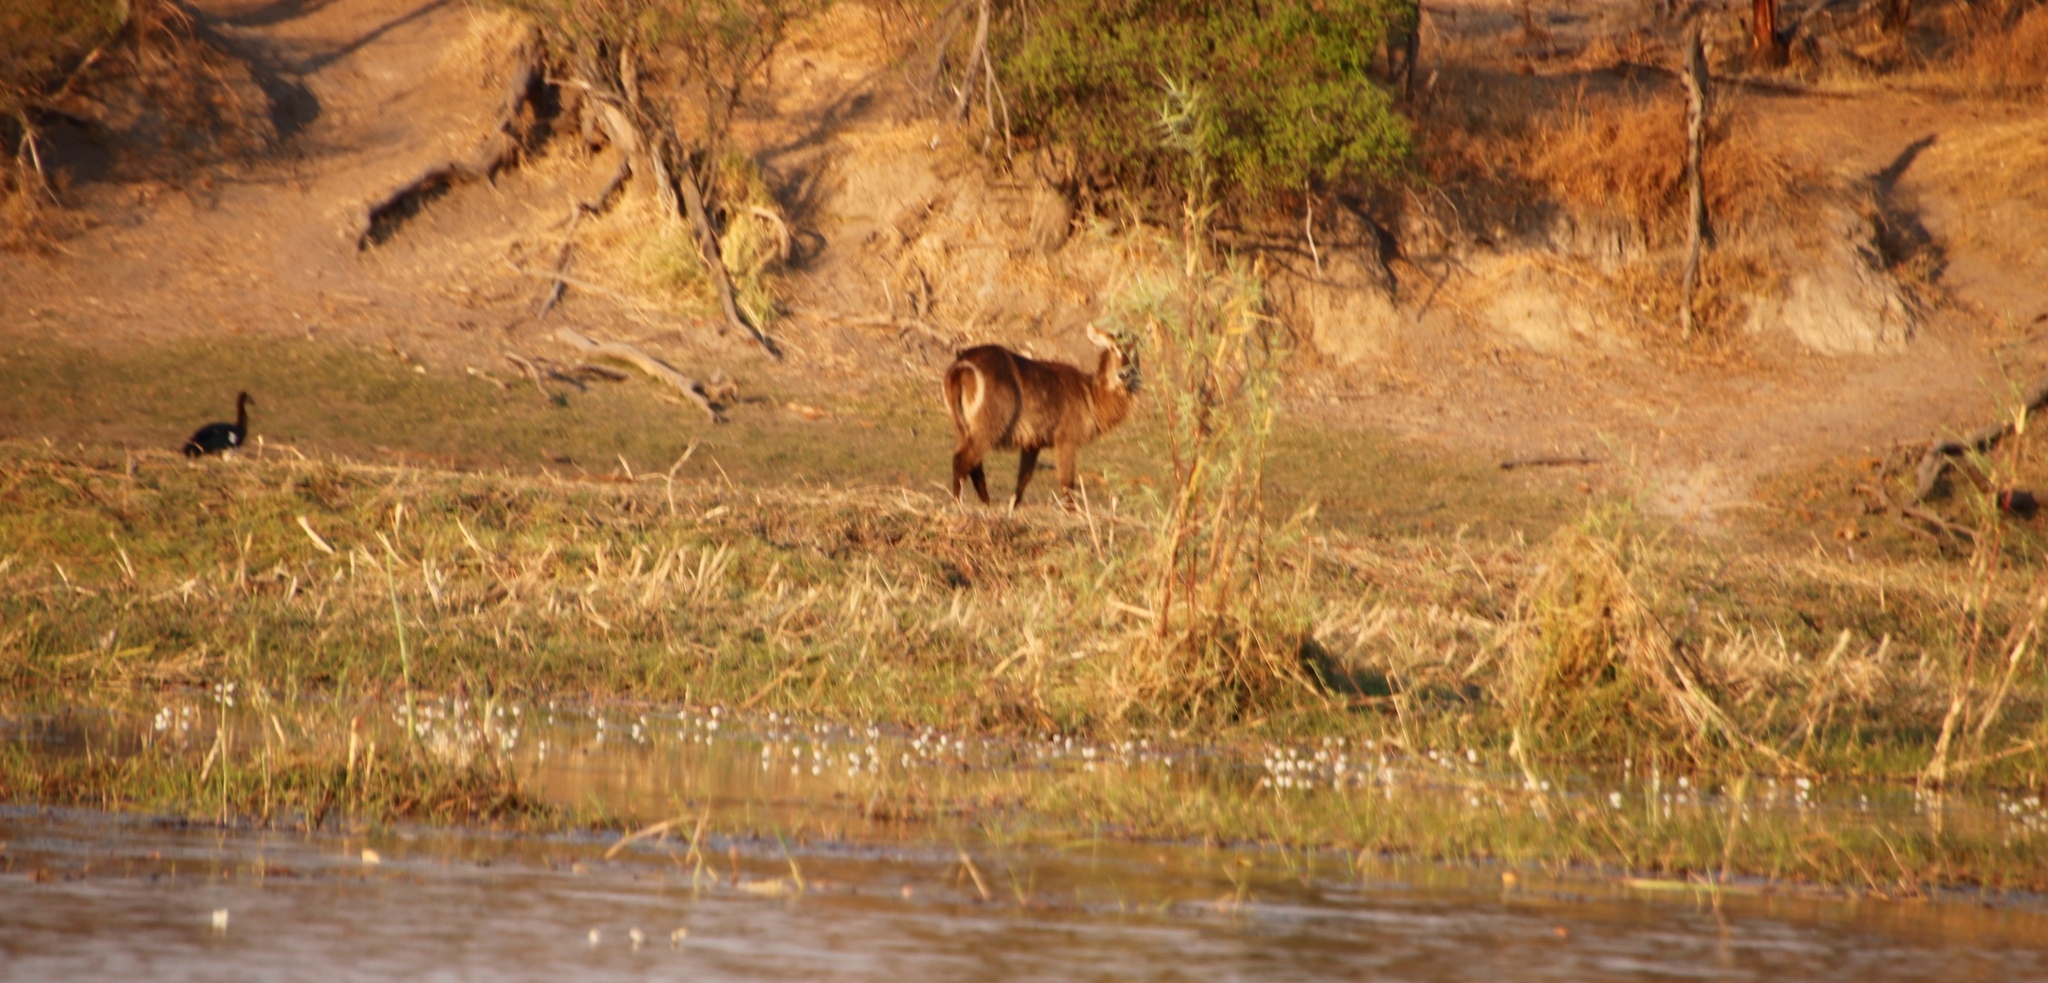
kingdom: Animalia
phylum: Chordata
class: Mammalia
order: Artiodactyla
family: Bovidae
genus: Kobus
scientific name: Kobus ellipsiprymnus
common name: Waterbuck
